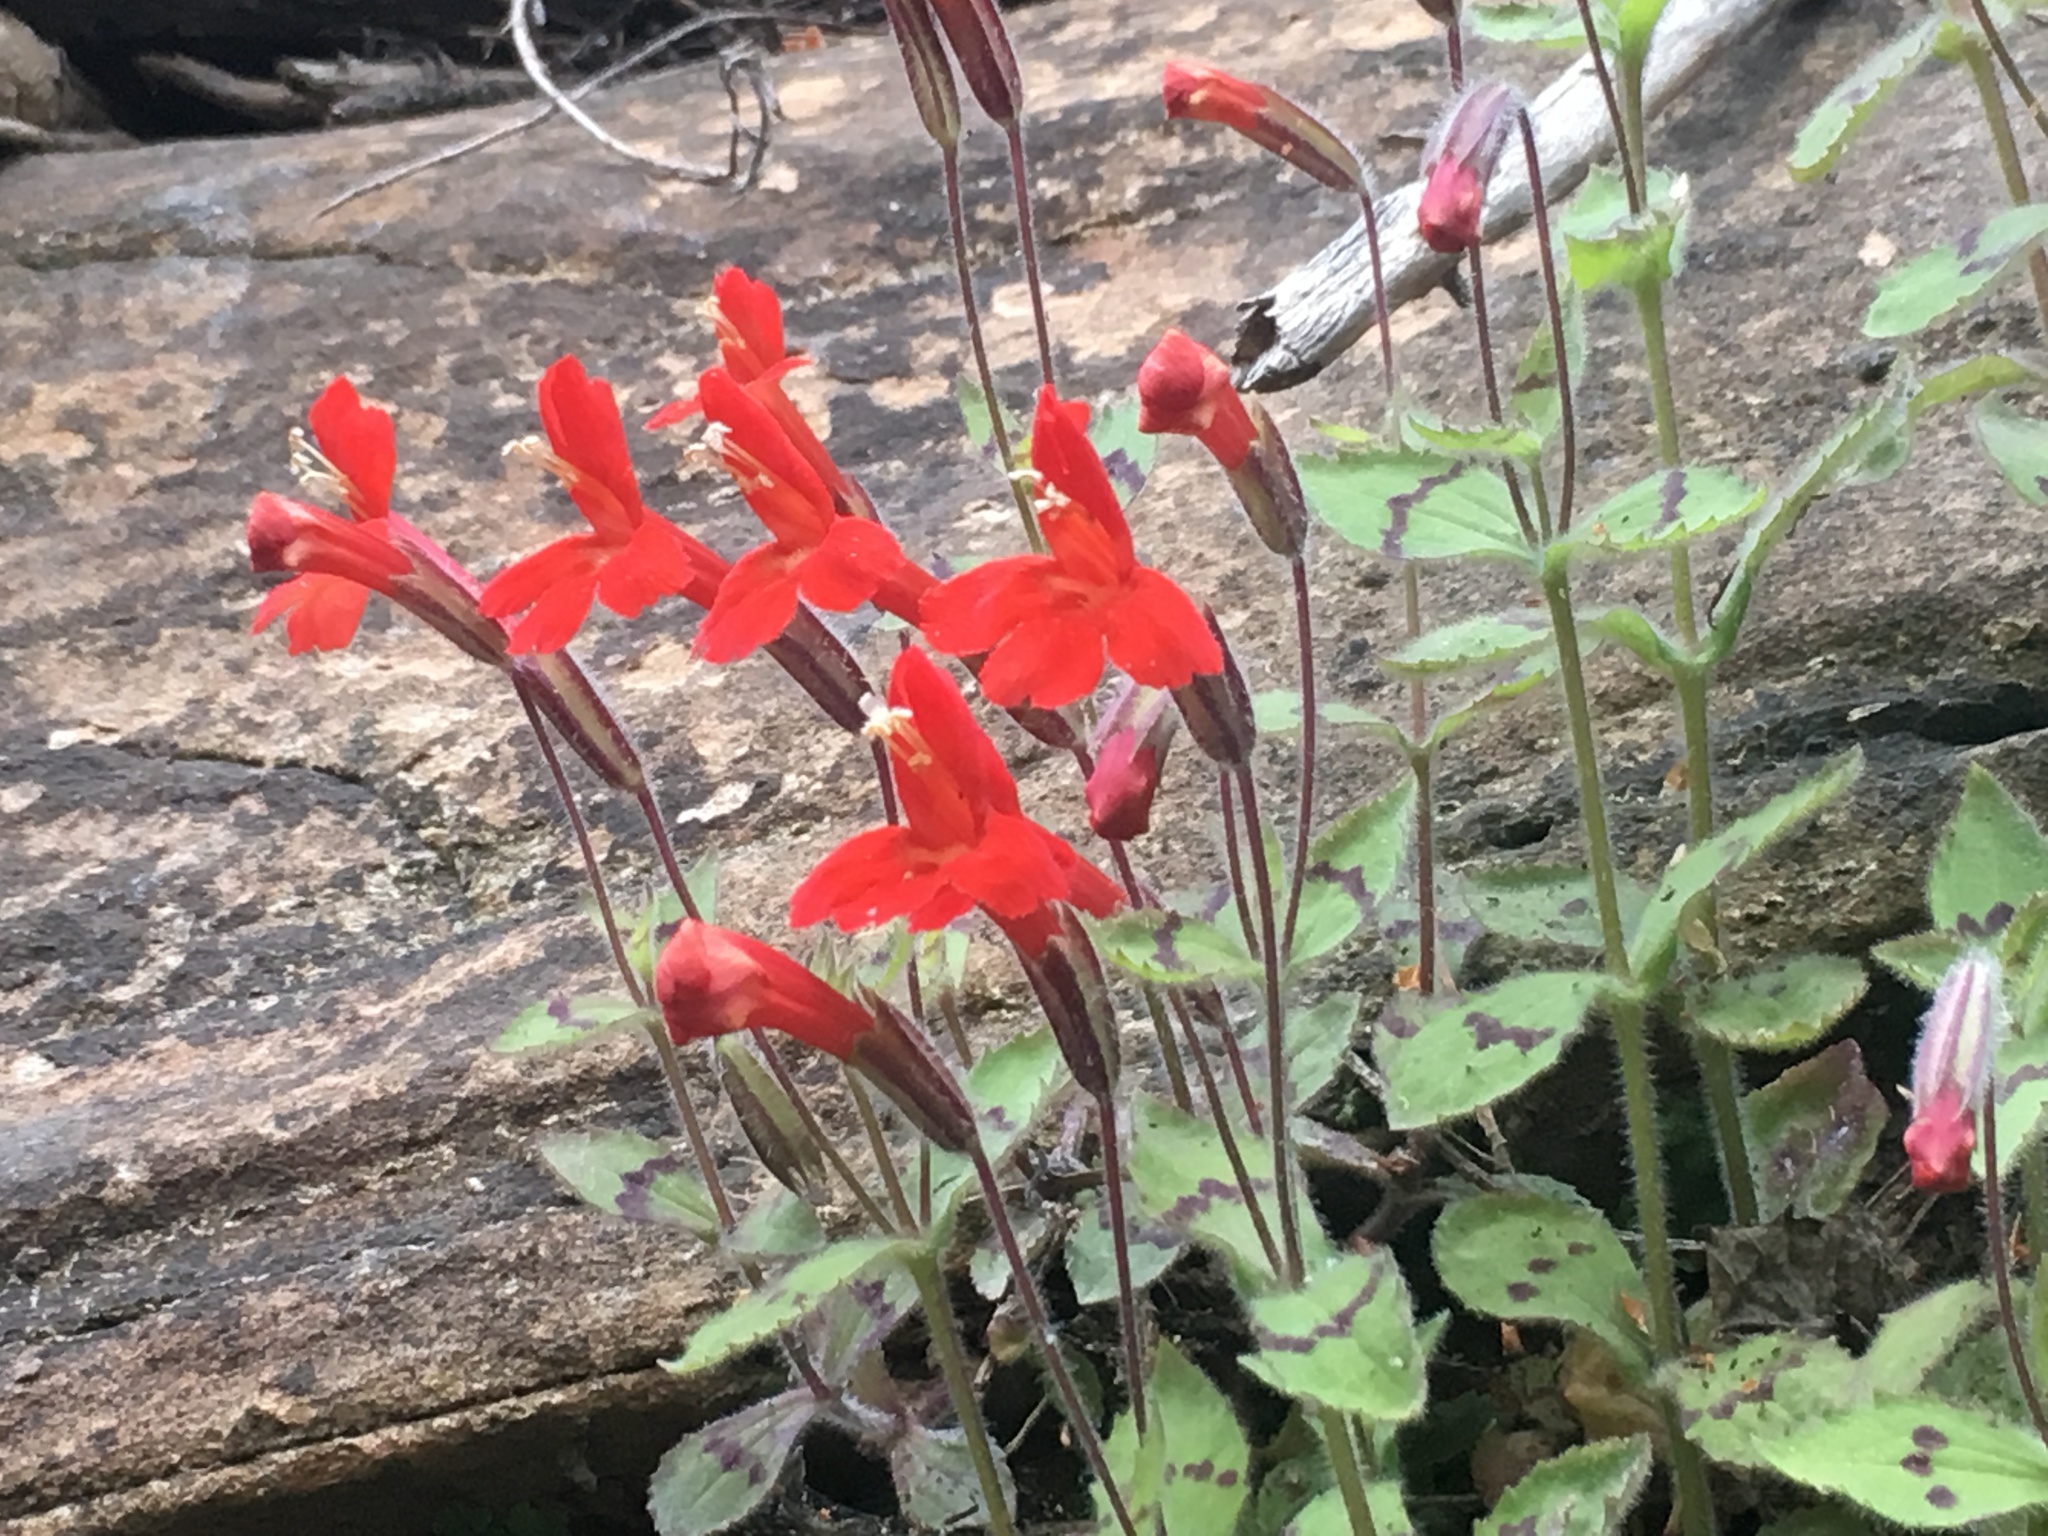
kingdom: Plantae
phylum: Tracheophyta
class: Magnoliopsida
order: Lamiales
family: Phrymaceae
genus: Erythranthe
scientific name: Erythranthe verbenacea
